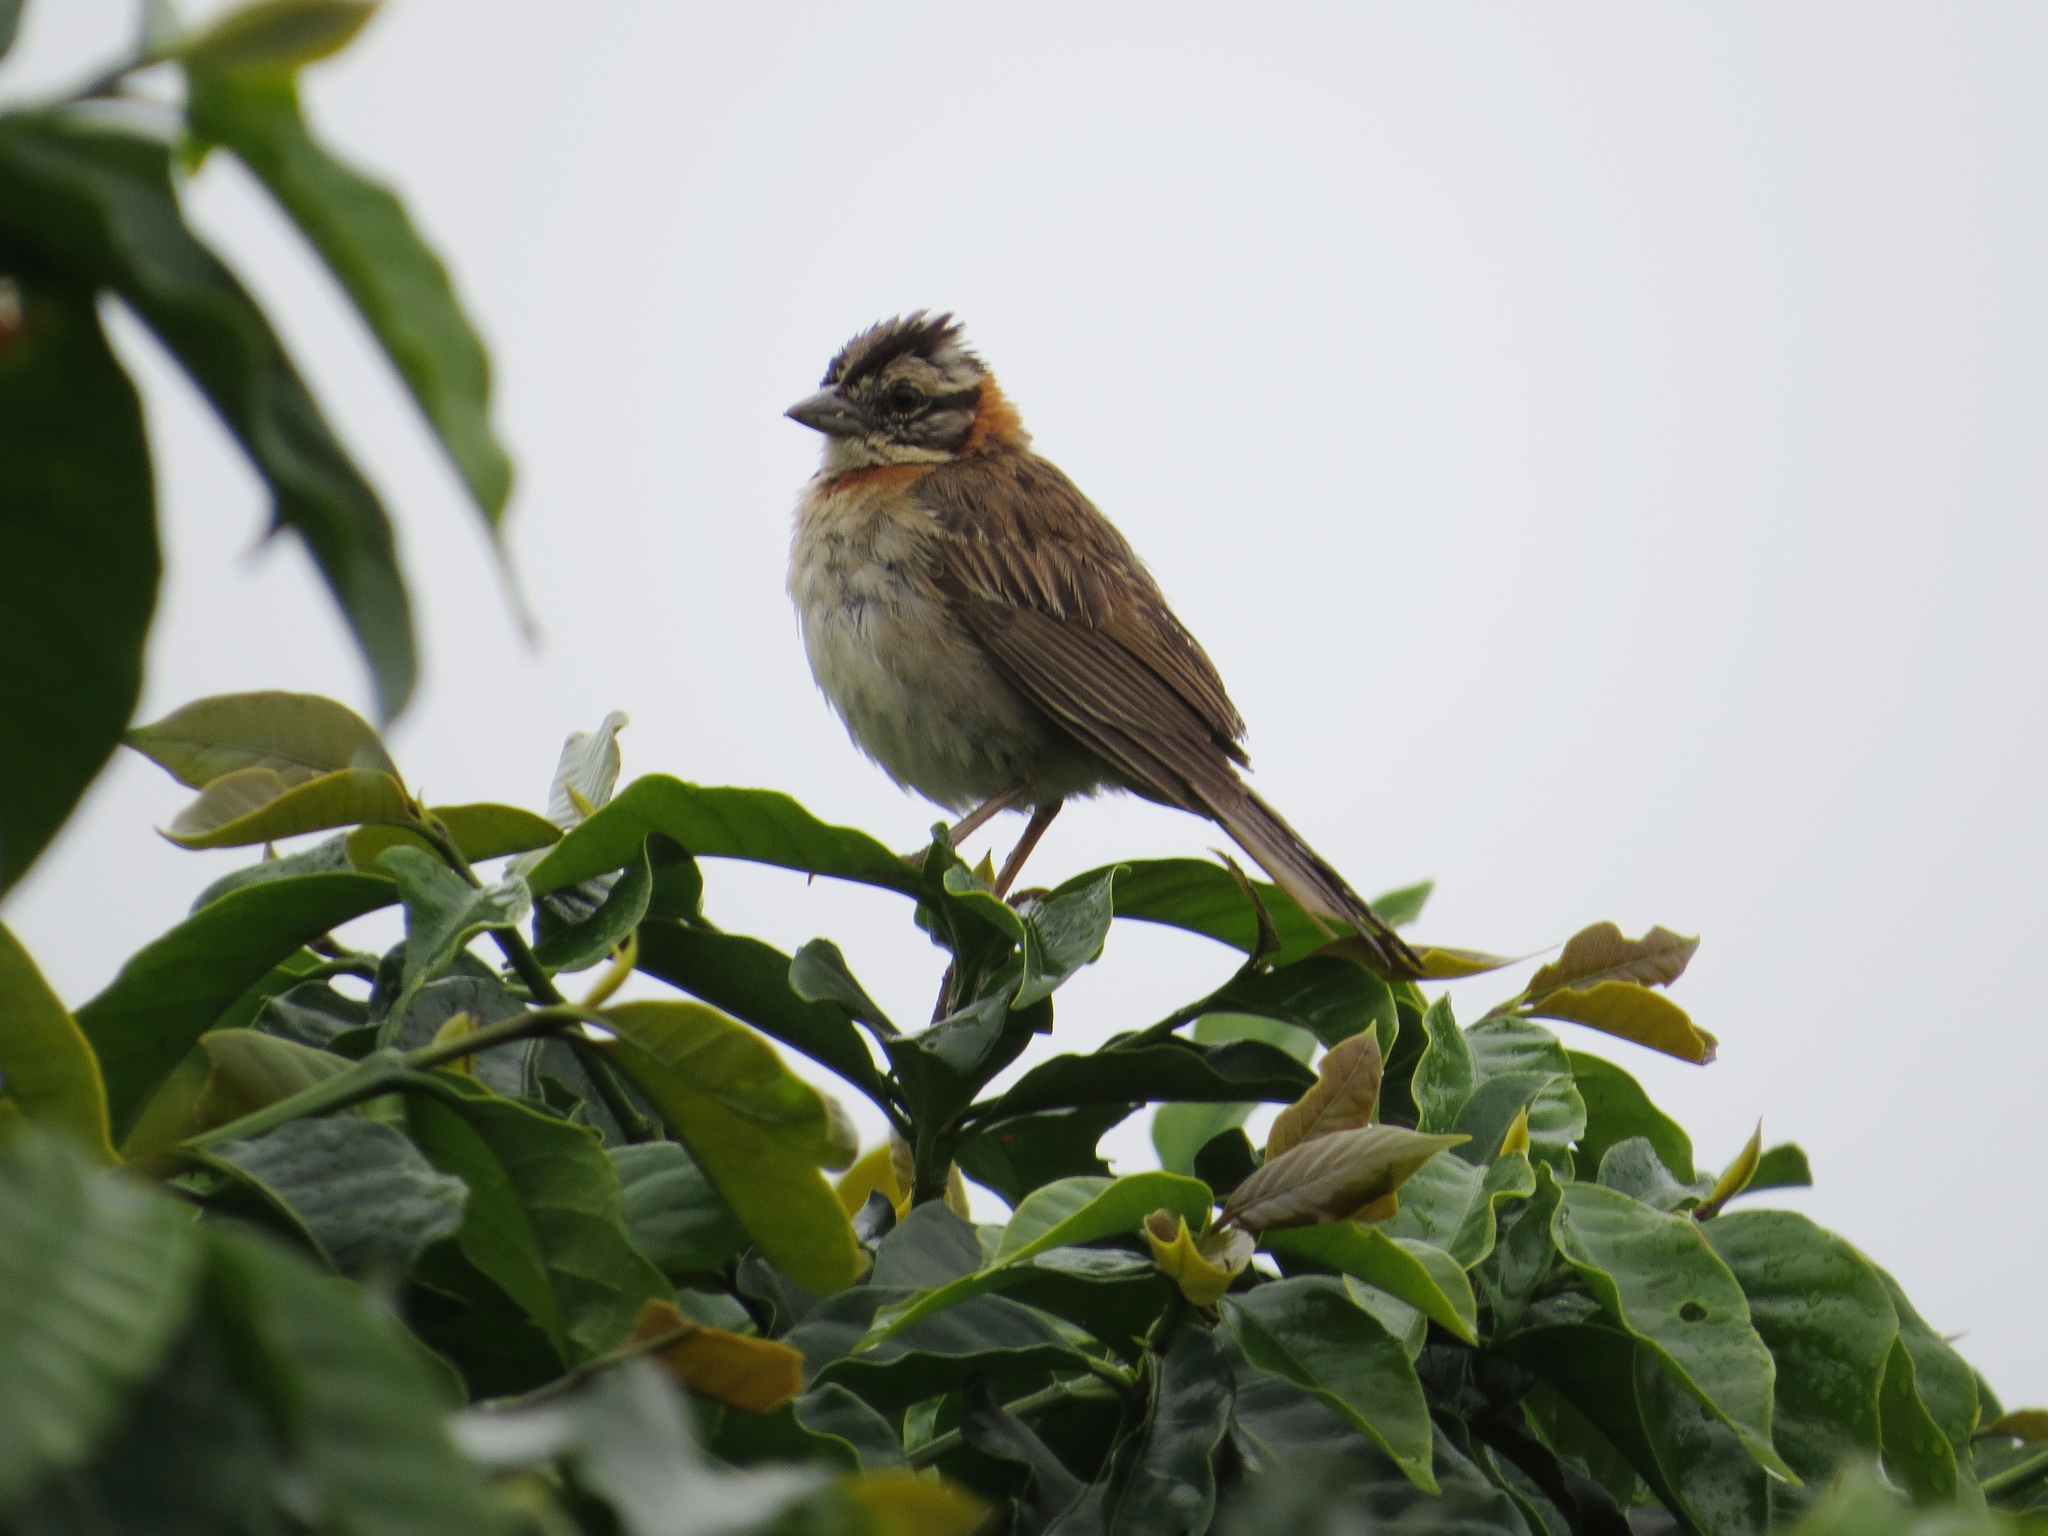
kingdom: Animalia
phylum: Chordata
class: Aves
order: Passeriformes
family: Passerellidae
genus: Zonotrichia
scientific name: Zonotrichia capensis
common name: Rufous-collared sparrow
